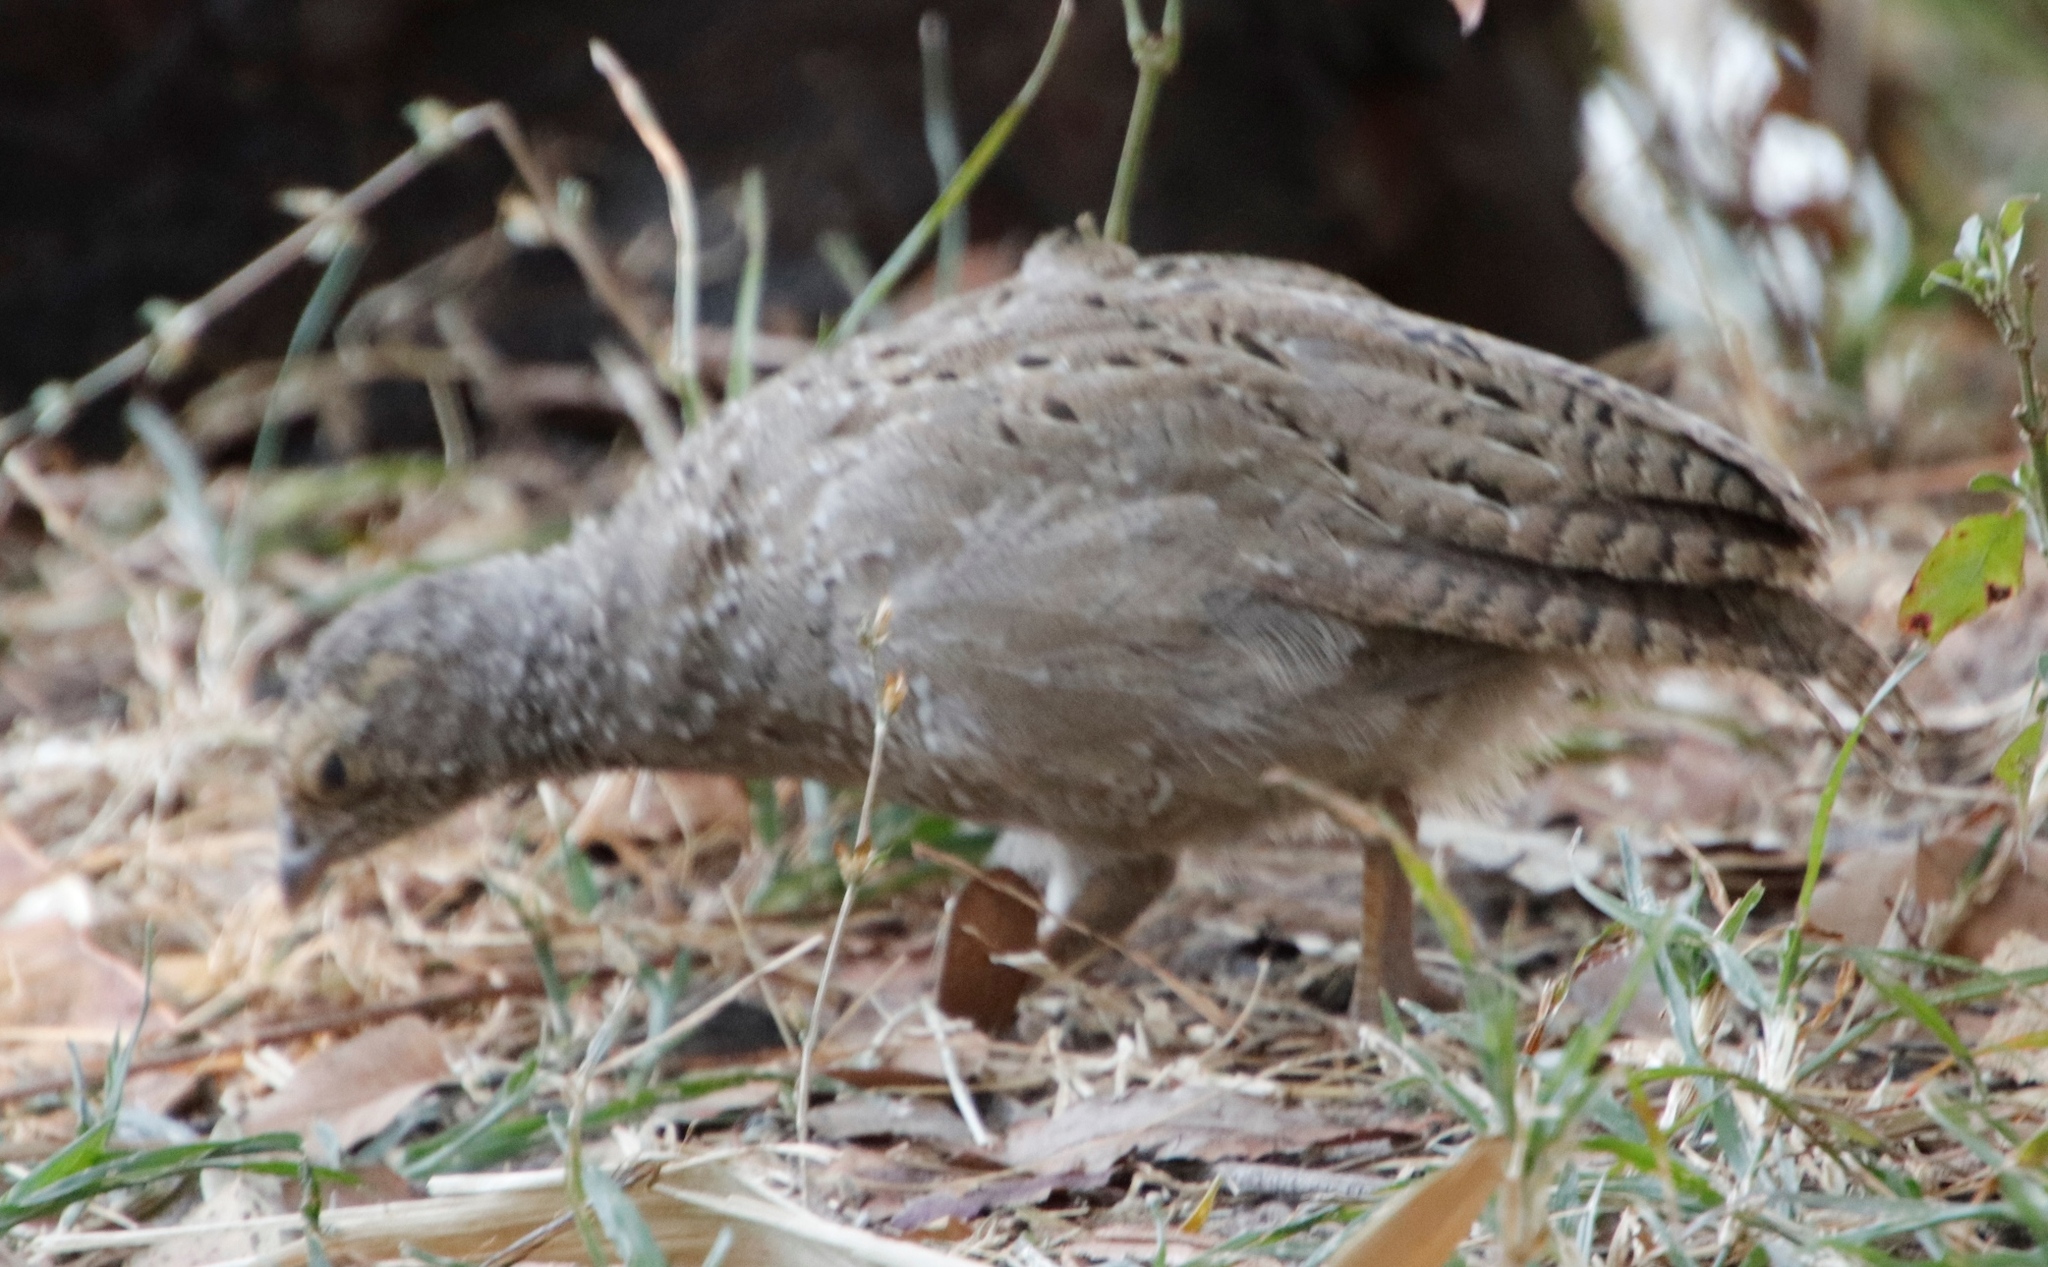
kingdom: Animalia
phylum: Chordata
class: Aves
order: Galliformes
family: Phasianidae
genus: Pternistis
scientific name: Pternistis adspersus
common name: Red-billed spurfowl
